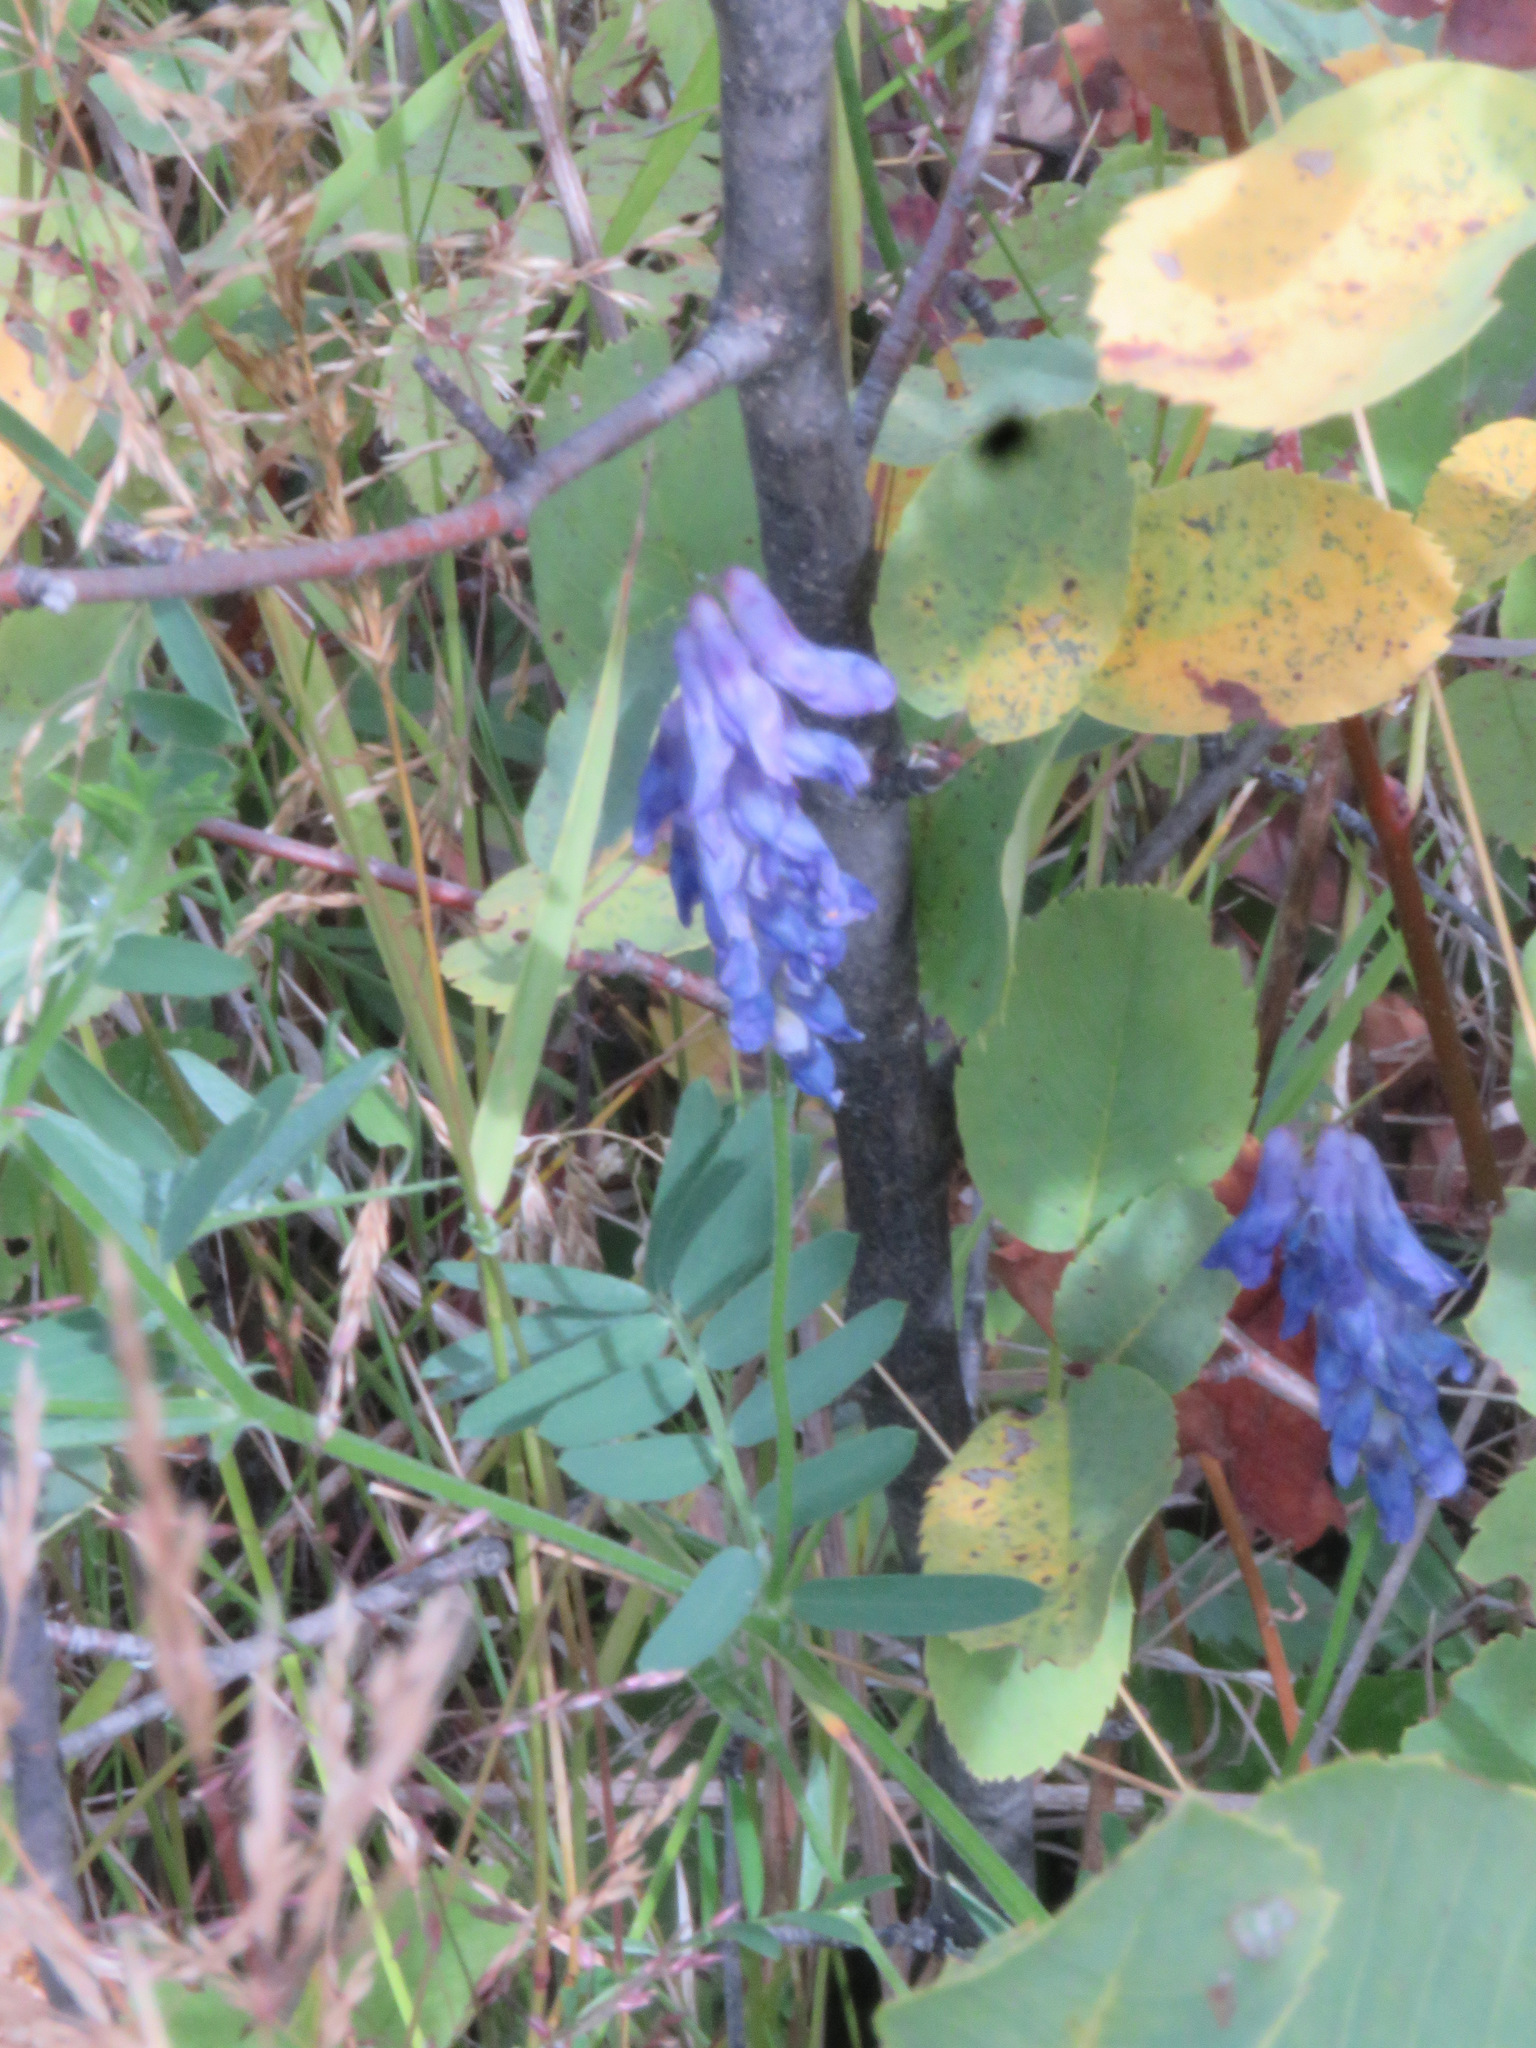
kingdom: Plantae
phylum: Tracheophyta
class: Magnoliopsida
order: Fabales
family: Fabaceae
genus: Vicia
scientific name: Vicia cracca
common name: Bird vetch
